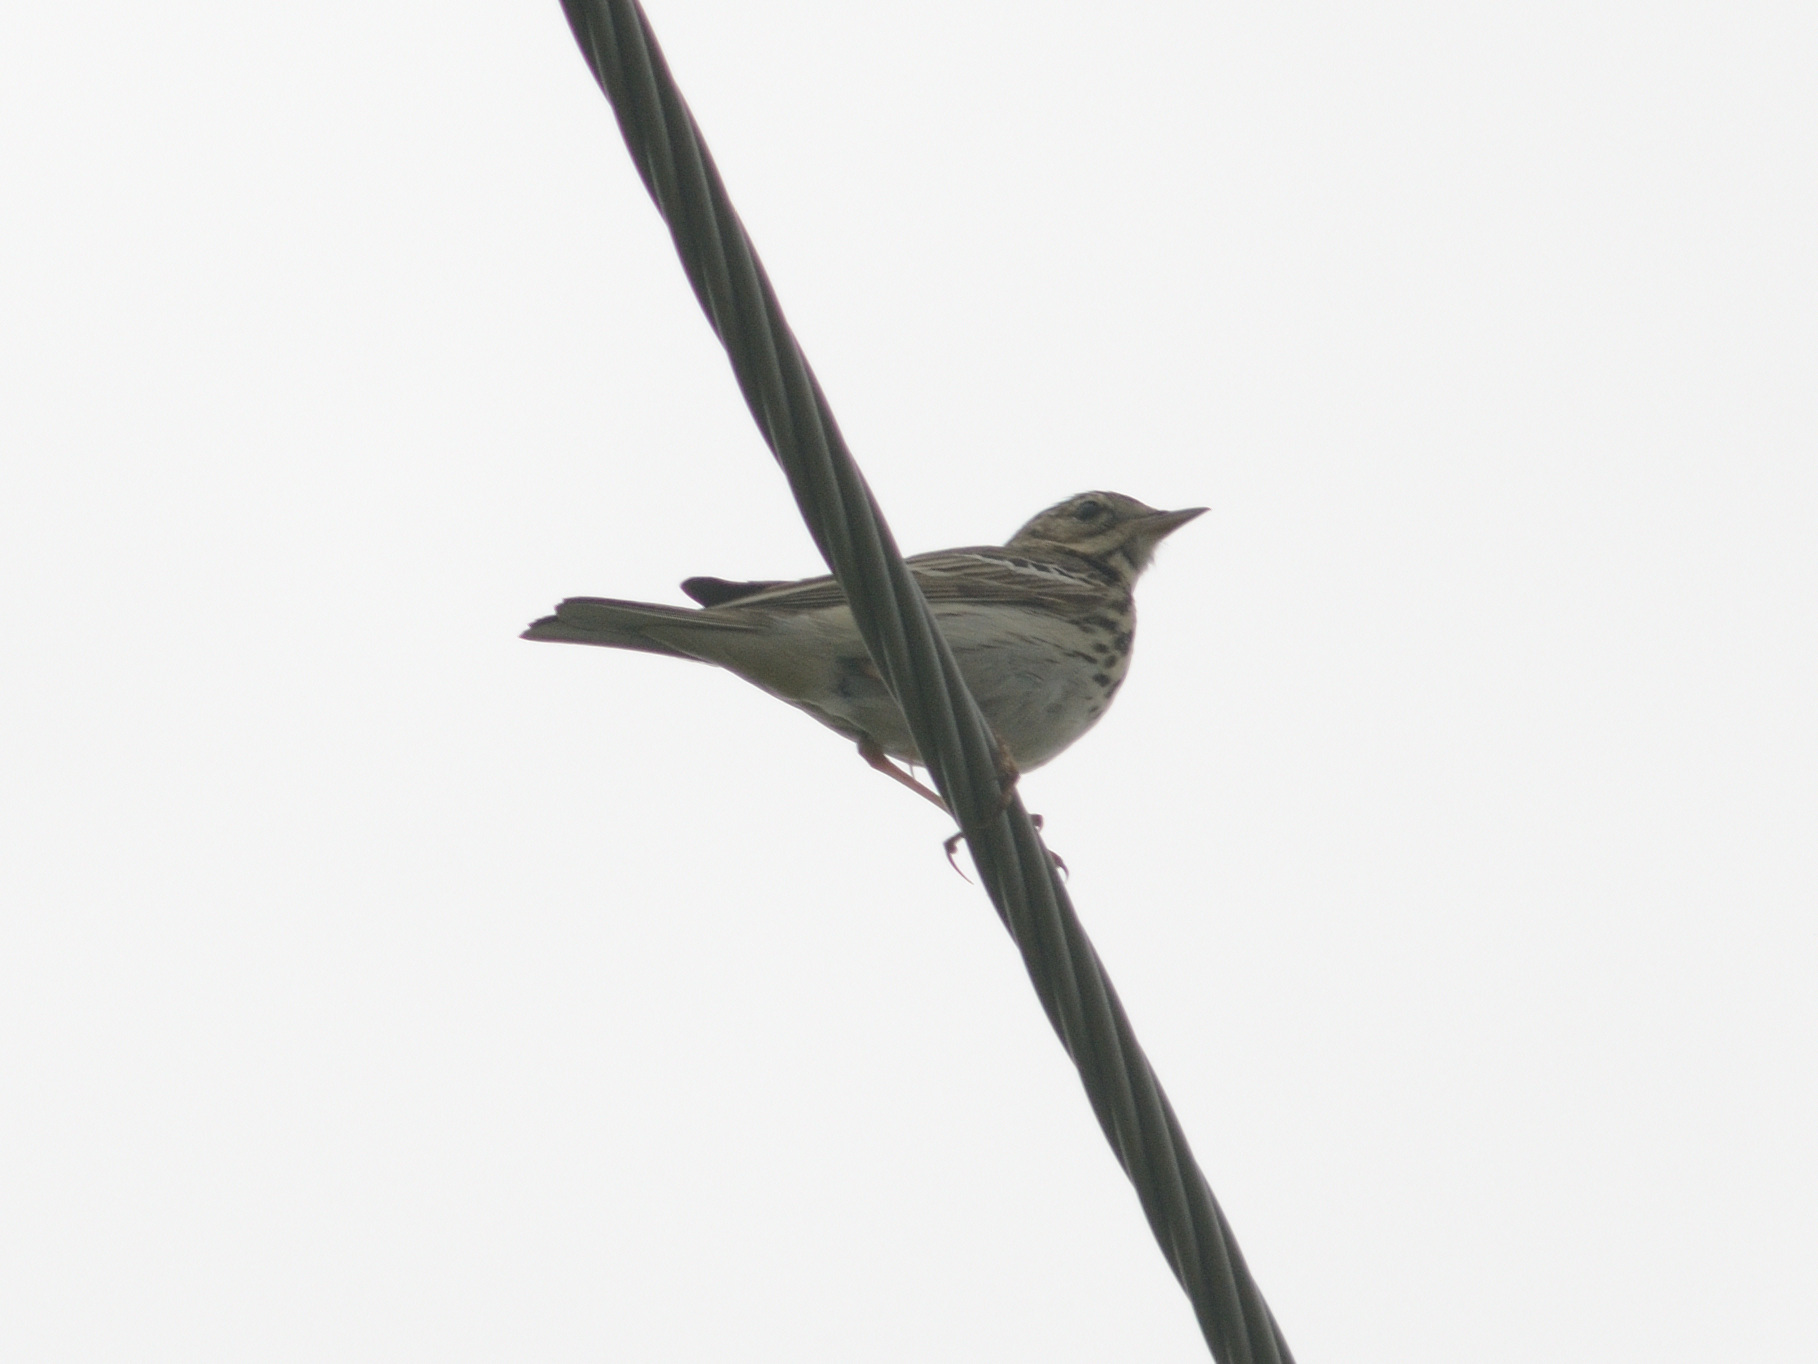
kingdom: Animalia
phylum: Chordata
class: Aves
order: Passeriformes
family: Motacillidae
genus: Anthus
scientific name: Anthus trivialis
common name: Tree pipit
